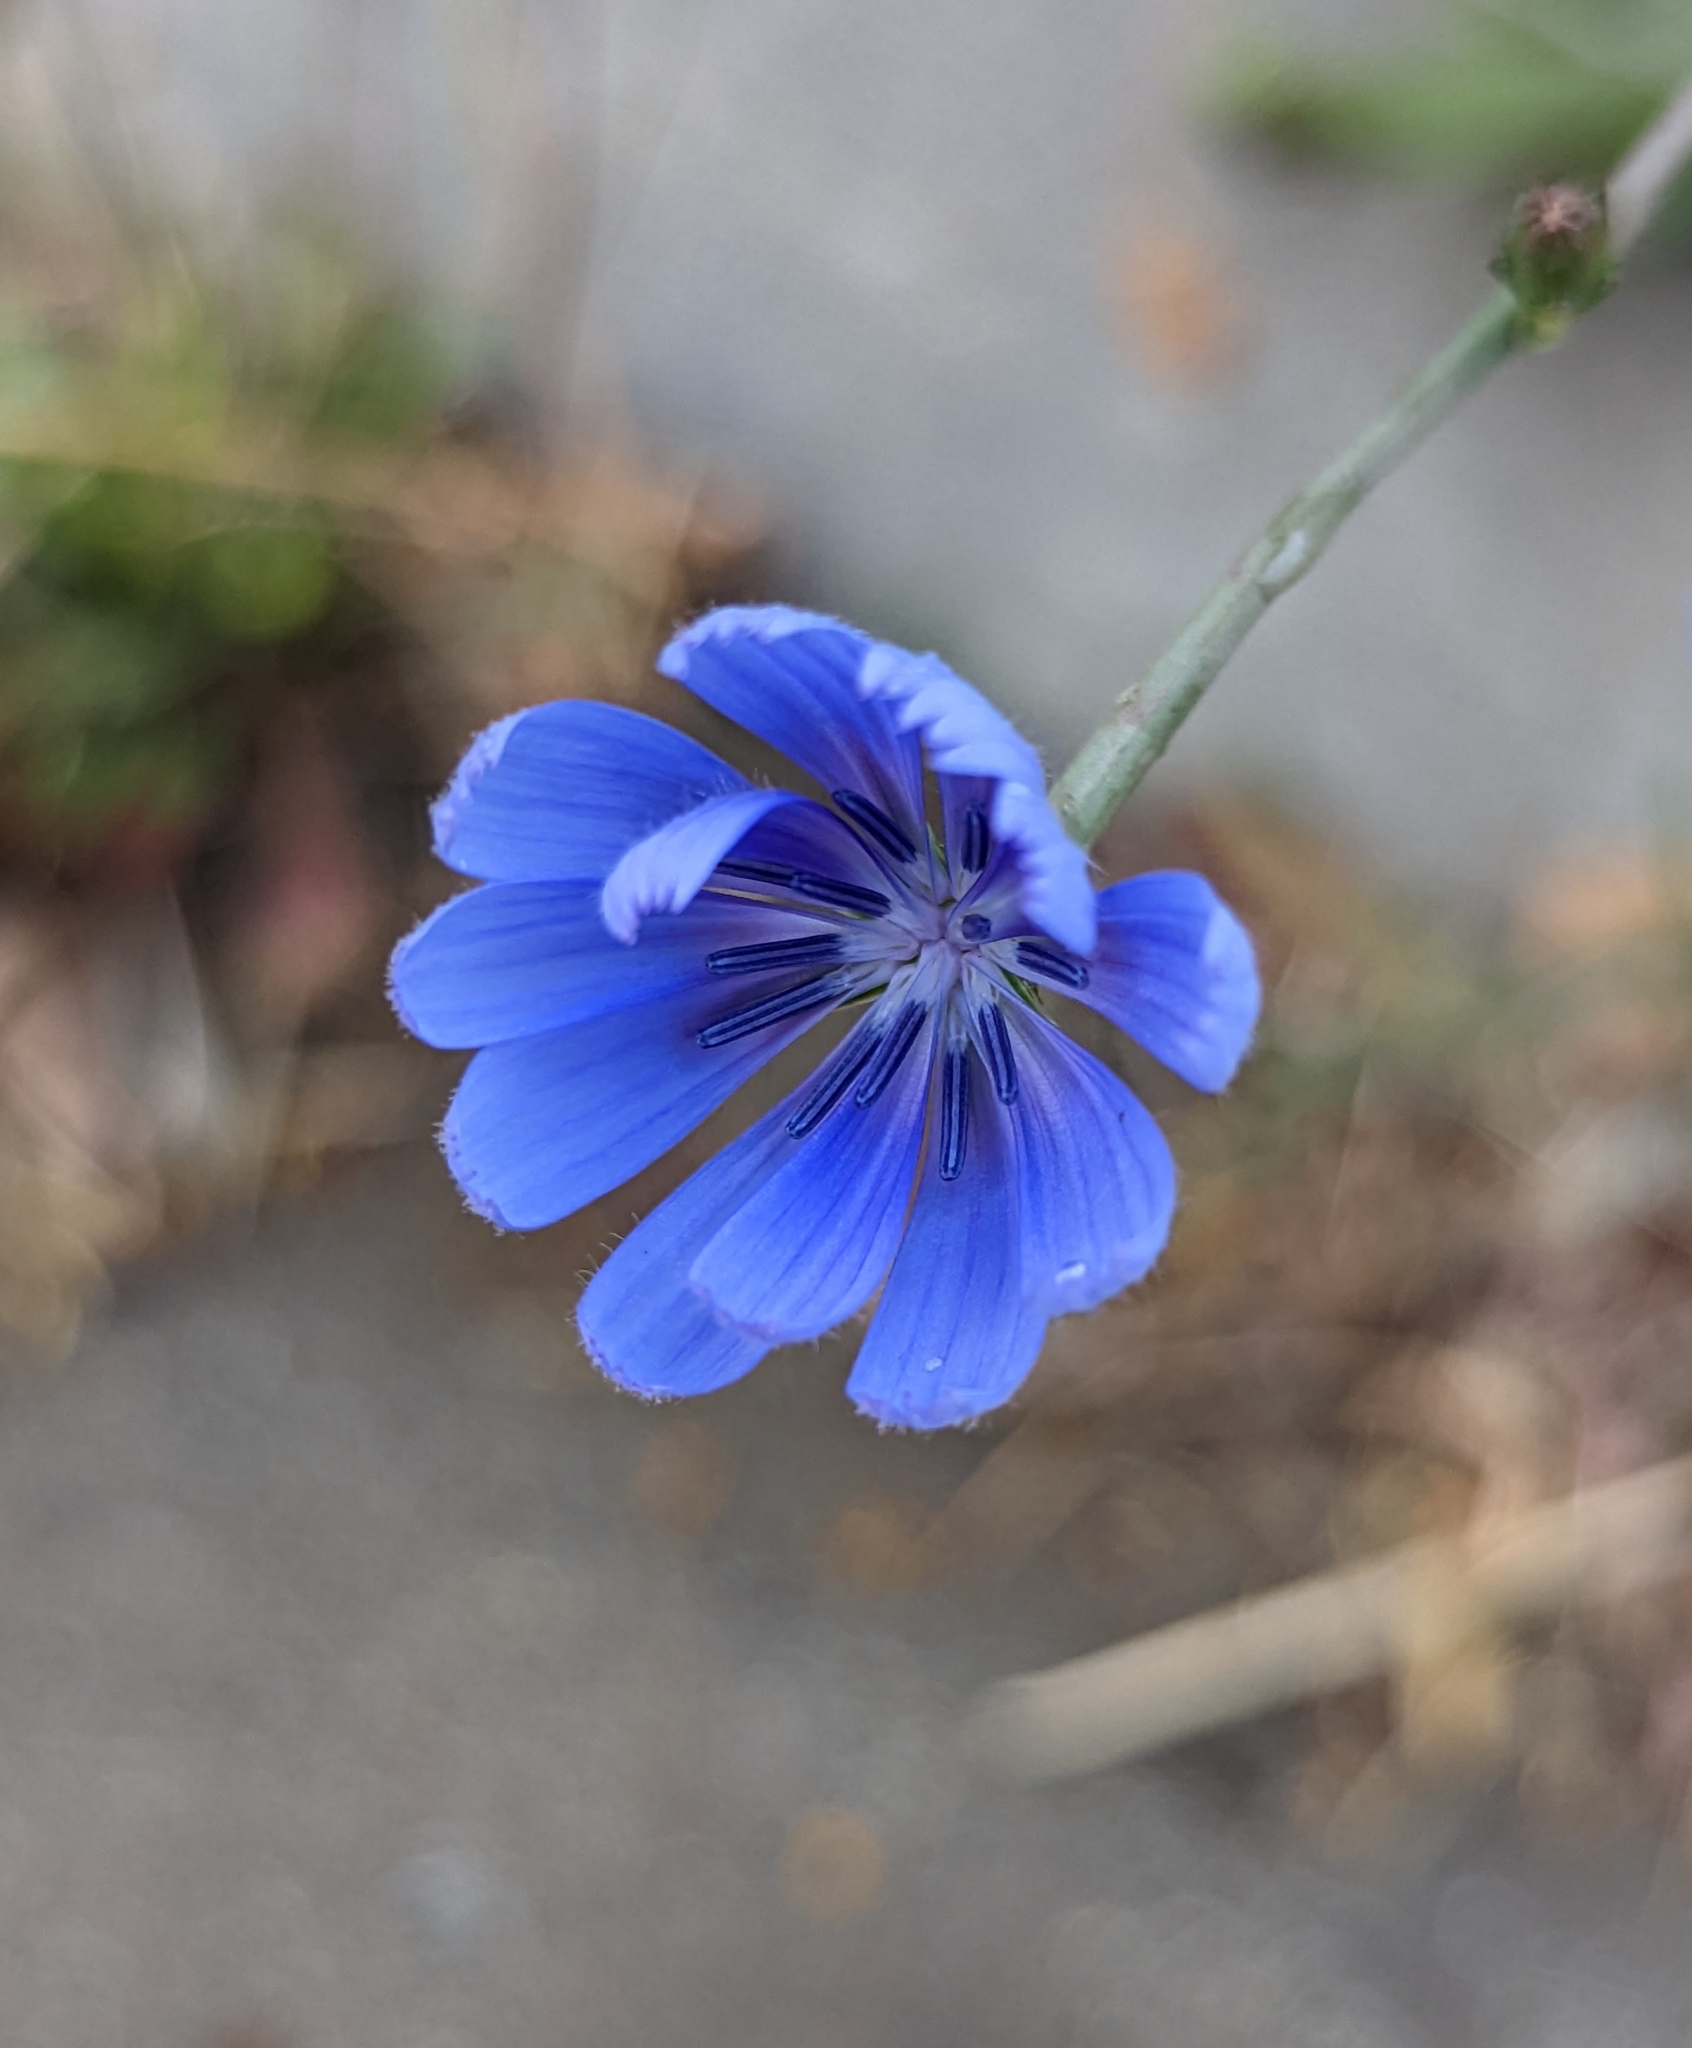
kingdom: Plantae
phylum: Tracheophyta
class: Magnoliopsida
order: Asterales
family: Asteraceae
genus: Cichorium
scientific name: Cichorium intybus
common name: Chicory
